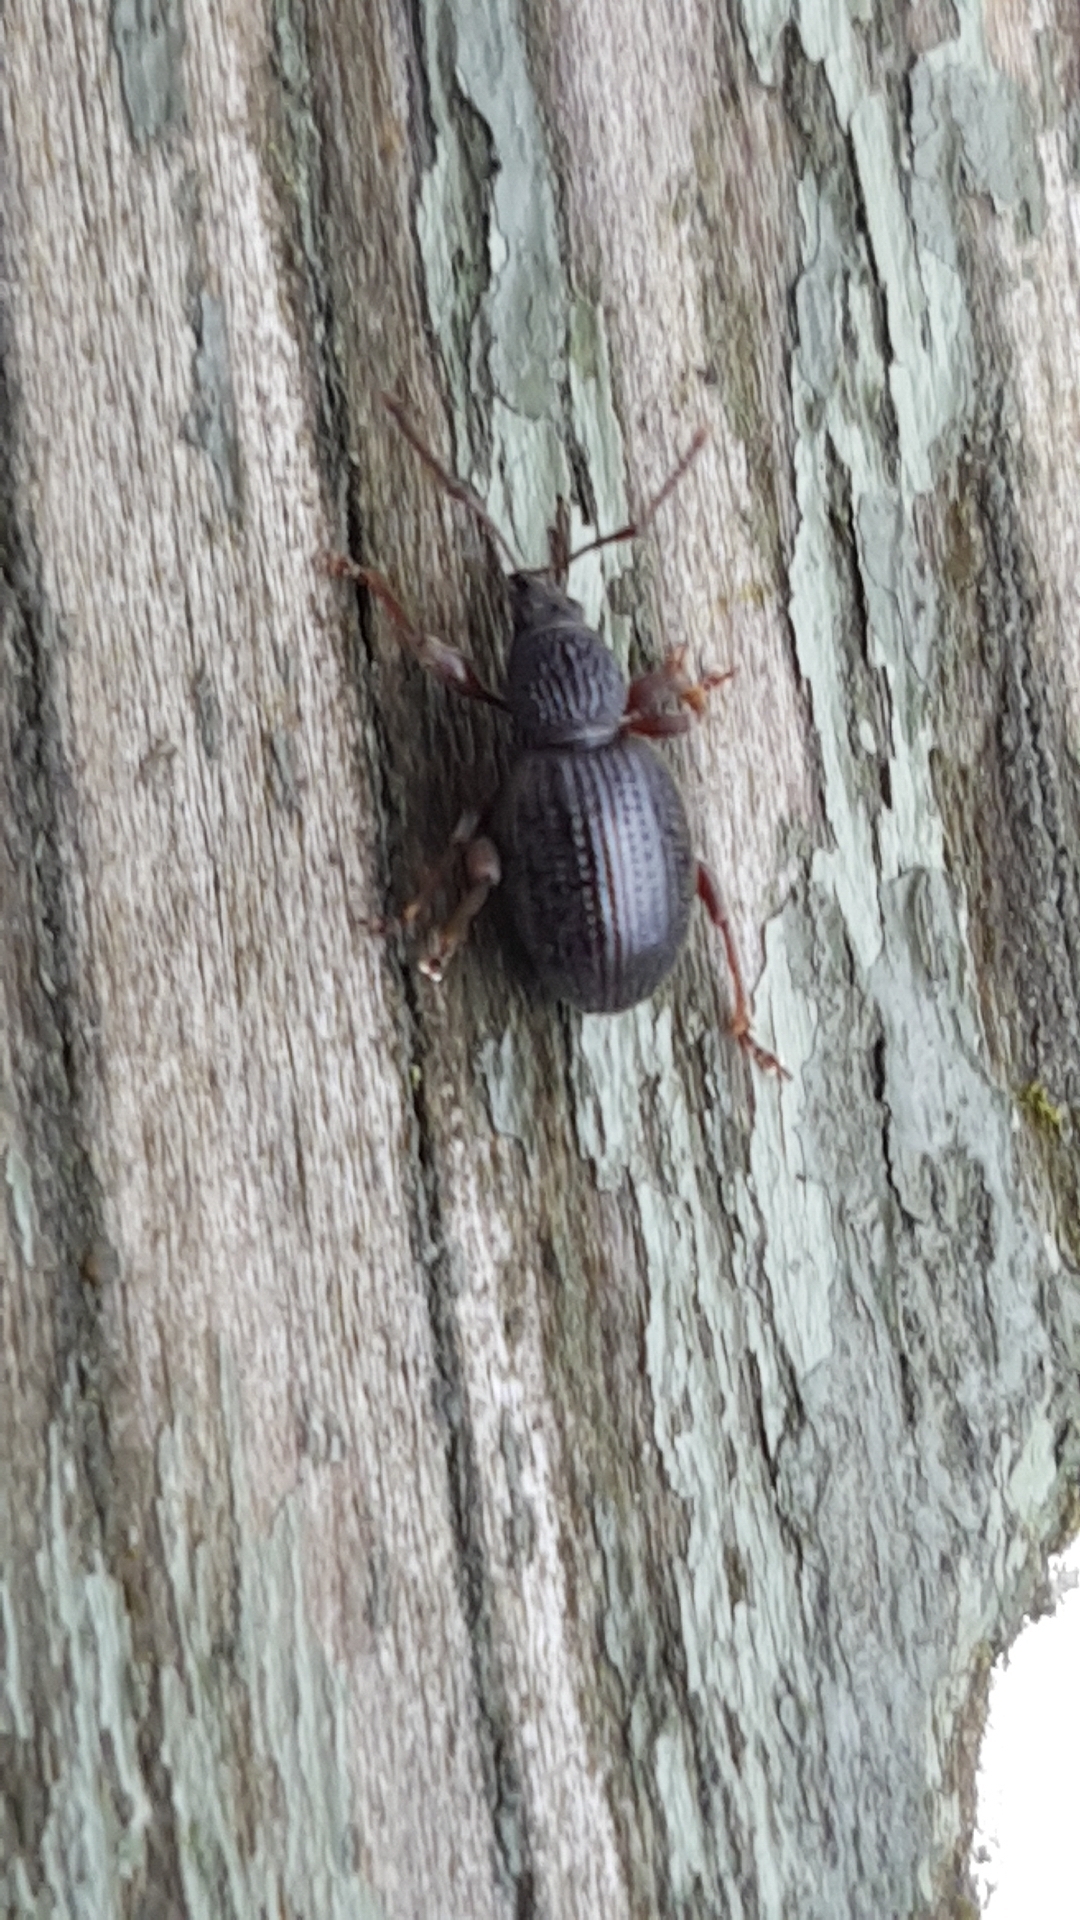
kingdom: Animalia
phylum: Arthropoda
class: Insecta
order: Coleoptera
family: Curculionidae
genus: Otiorhynchus
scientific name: Otiorhynchus ovatus
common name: Strawberry root weevil
